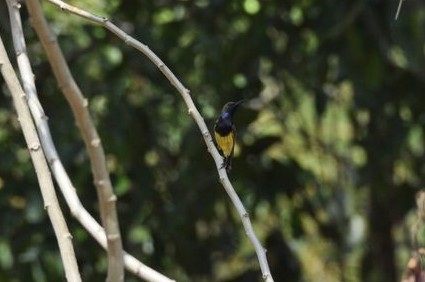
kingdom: Animalia
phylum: Chordata
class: Aves
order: Passeriformes
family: Nectariniidae
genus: Cinnyris
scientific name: Cinnyris
